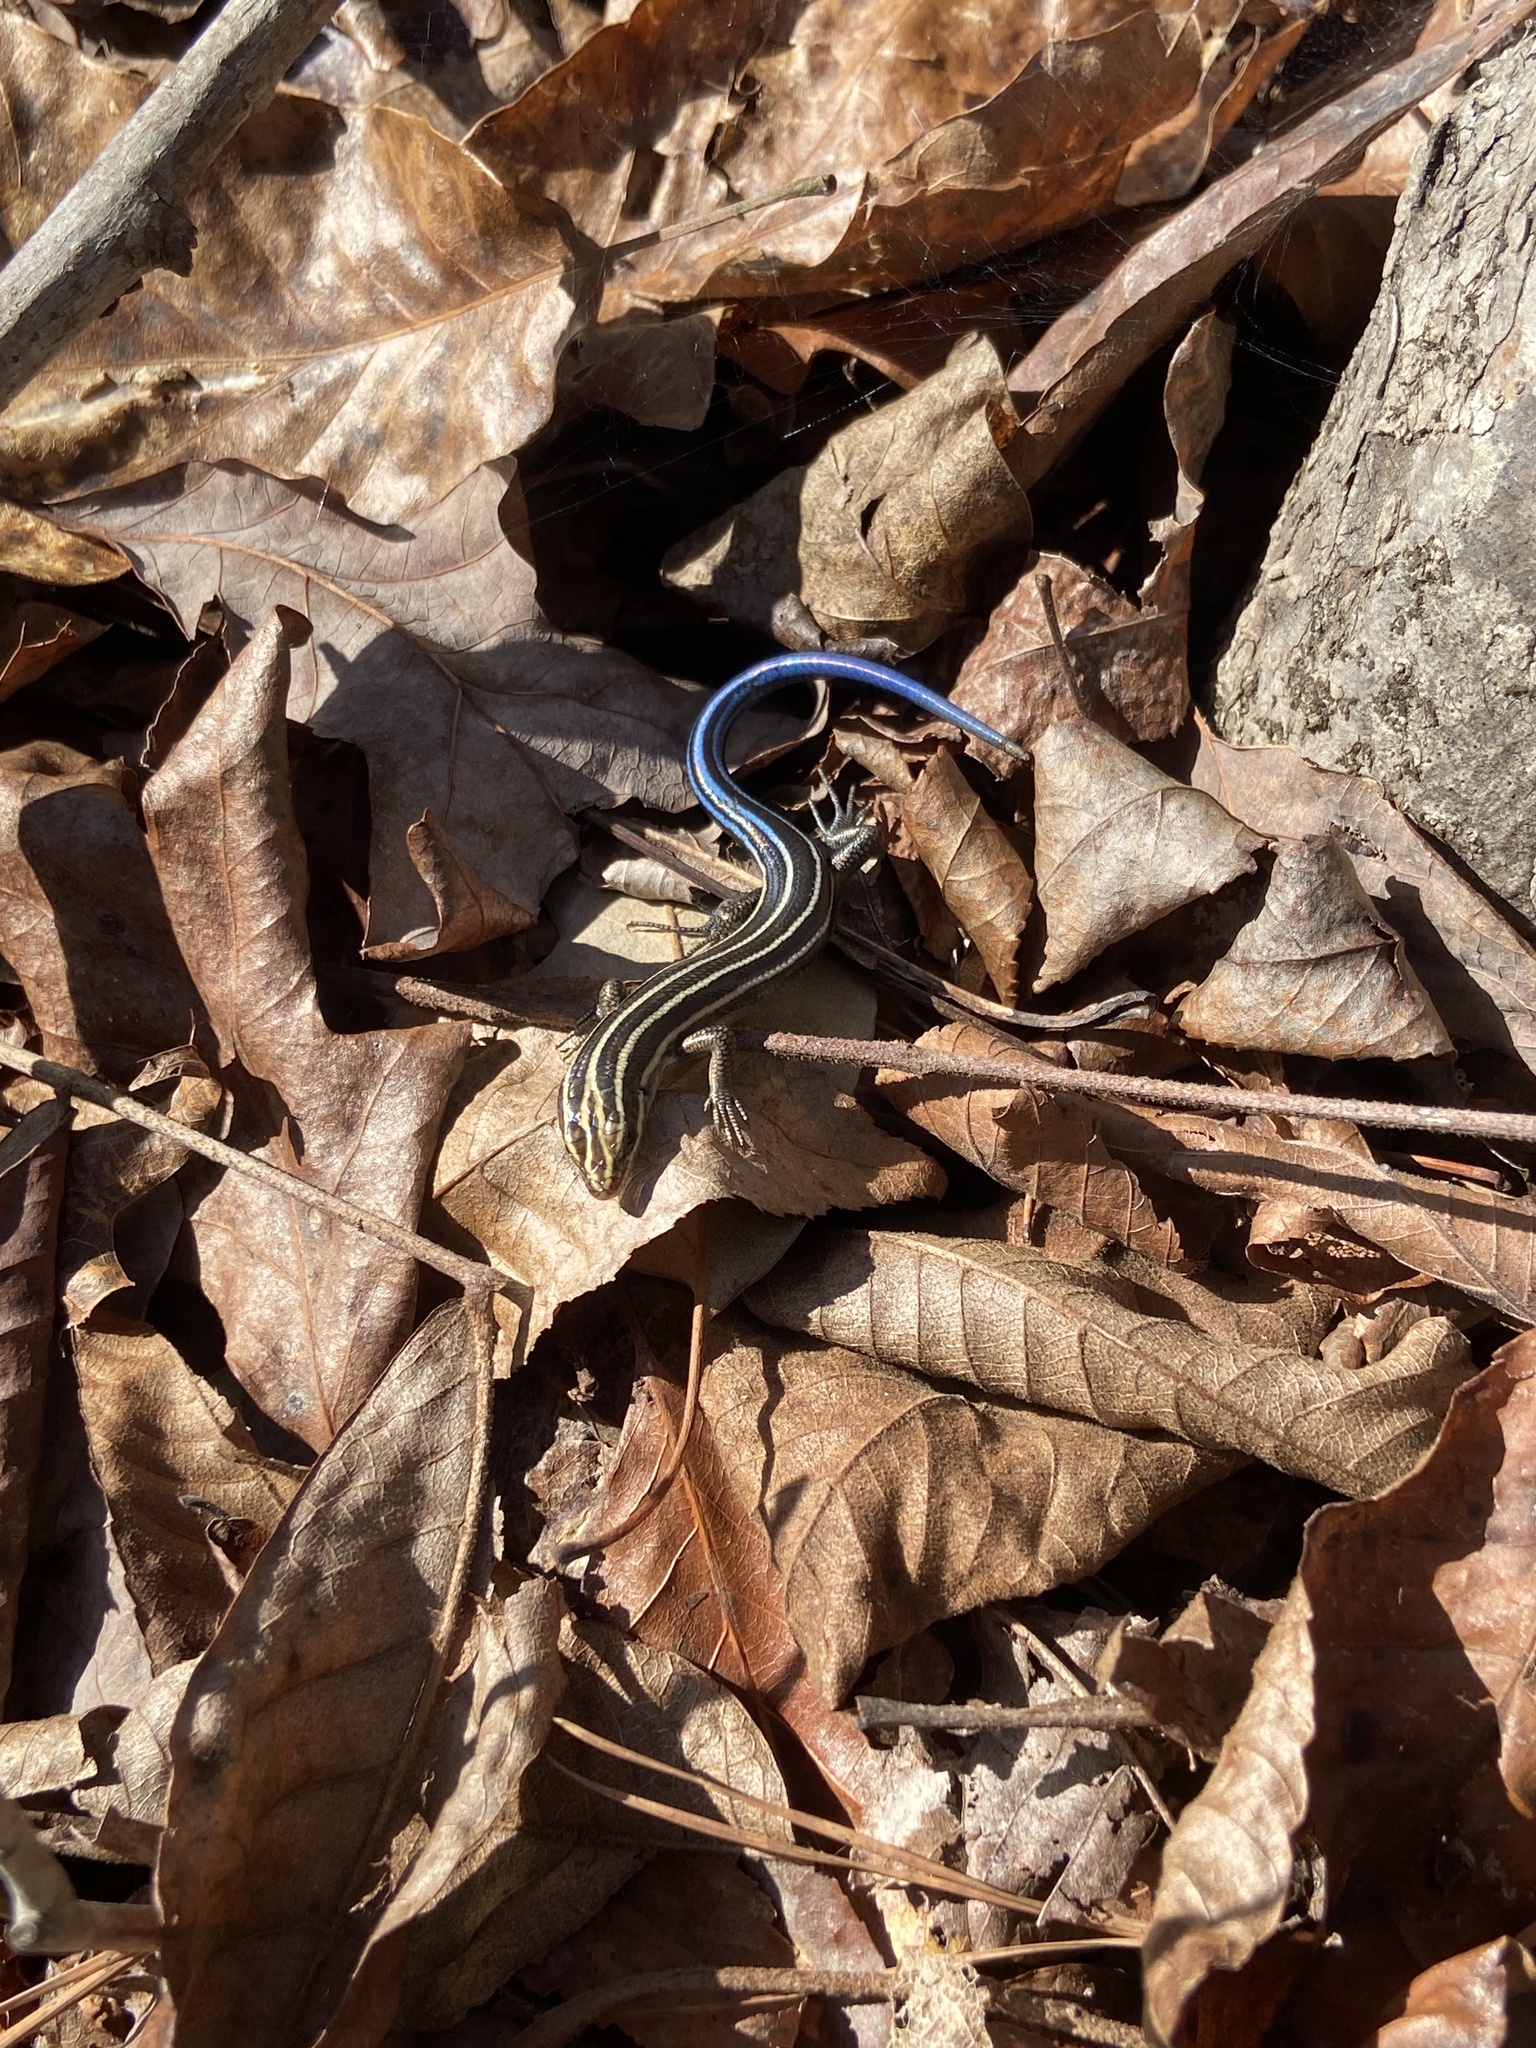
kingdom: Animalia
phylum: Chordata
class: Squamata
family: Scincidae
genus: Plestiodon
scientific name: Plestiodon fasciatus
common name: Five-lined skink
